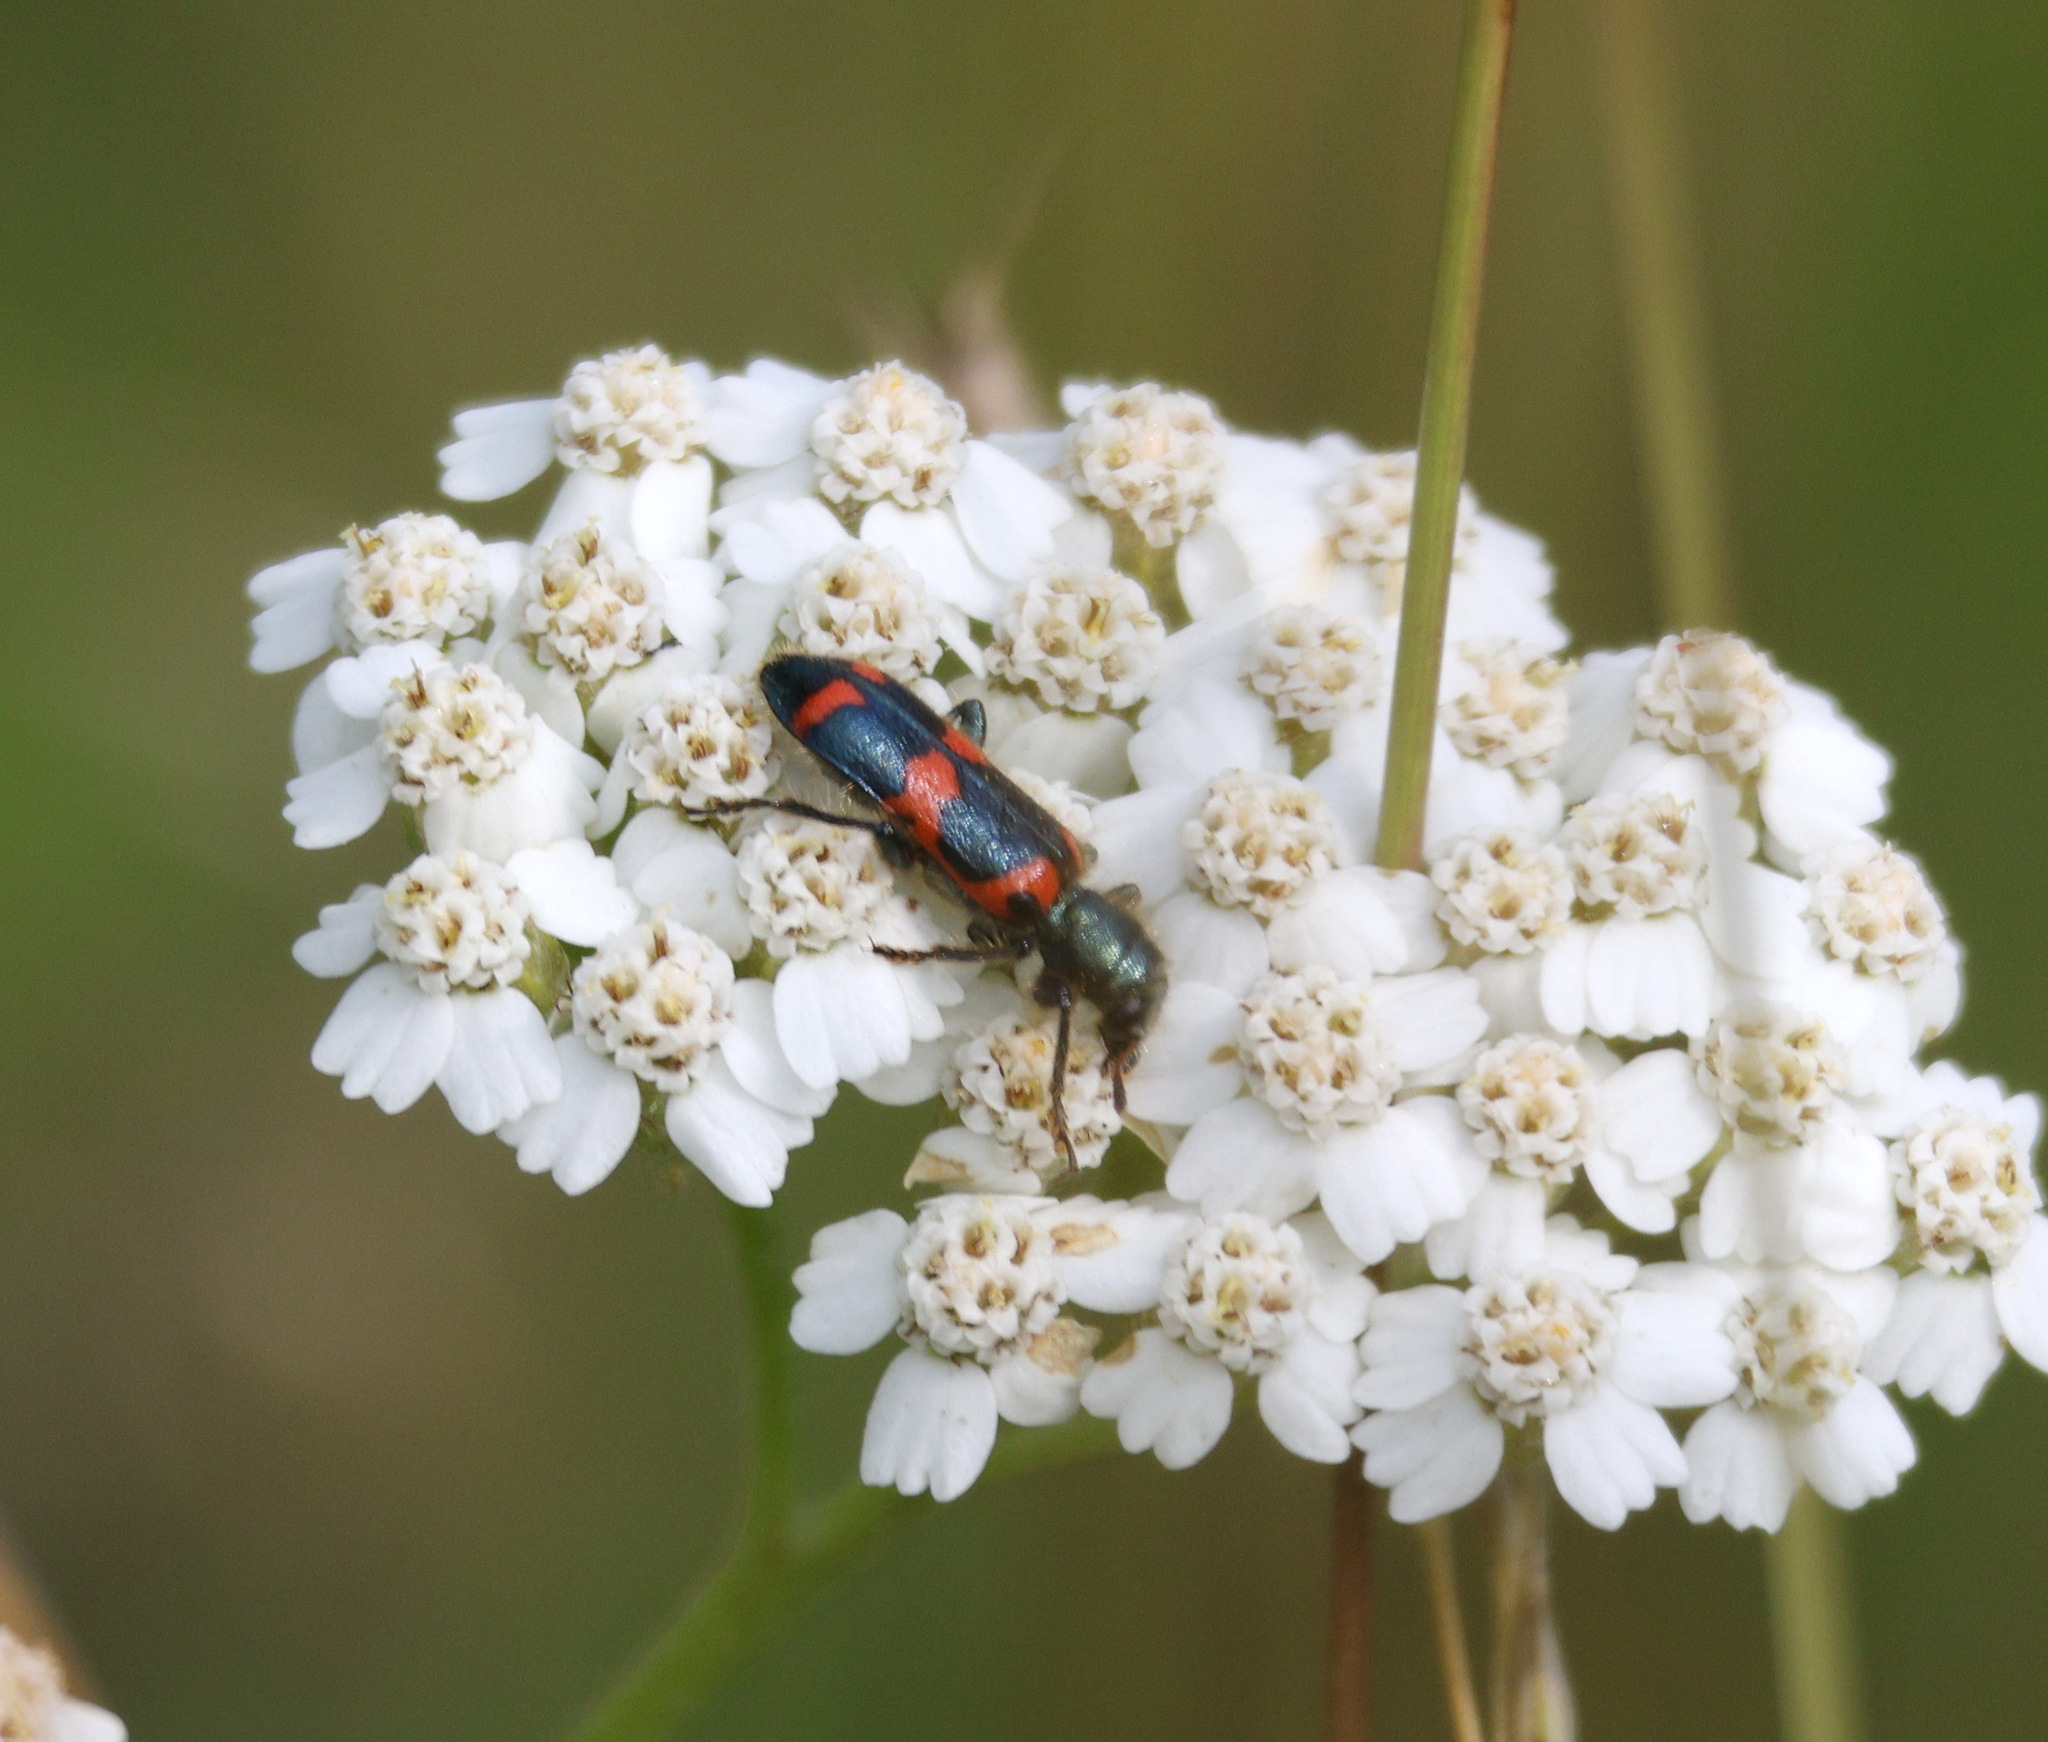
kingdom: Animalia
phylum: Arthropoda
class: Insecta
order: Coleoptera
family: Cleridae
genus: Trichodes
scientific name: Trichodes nutalli
